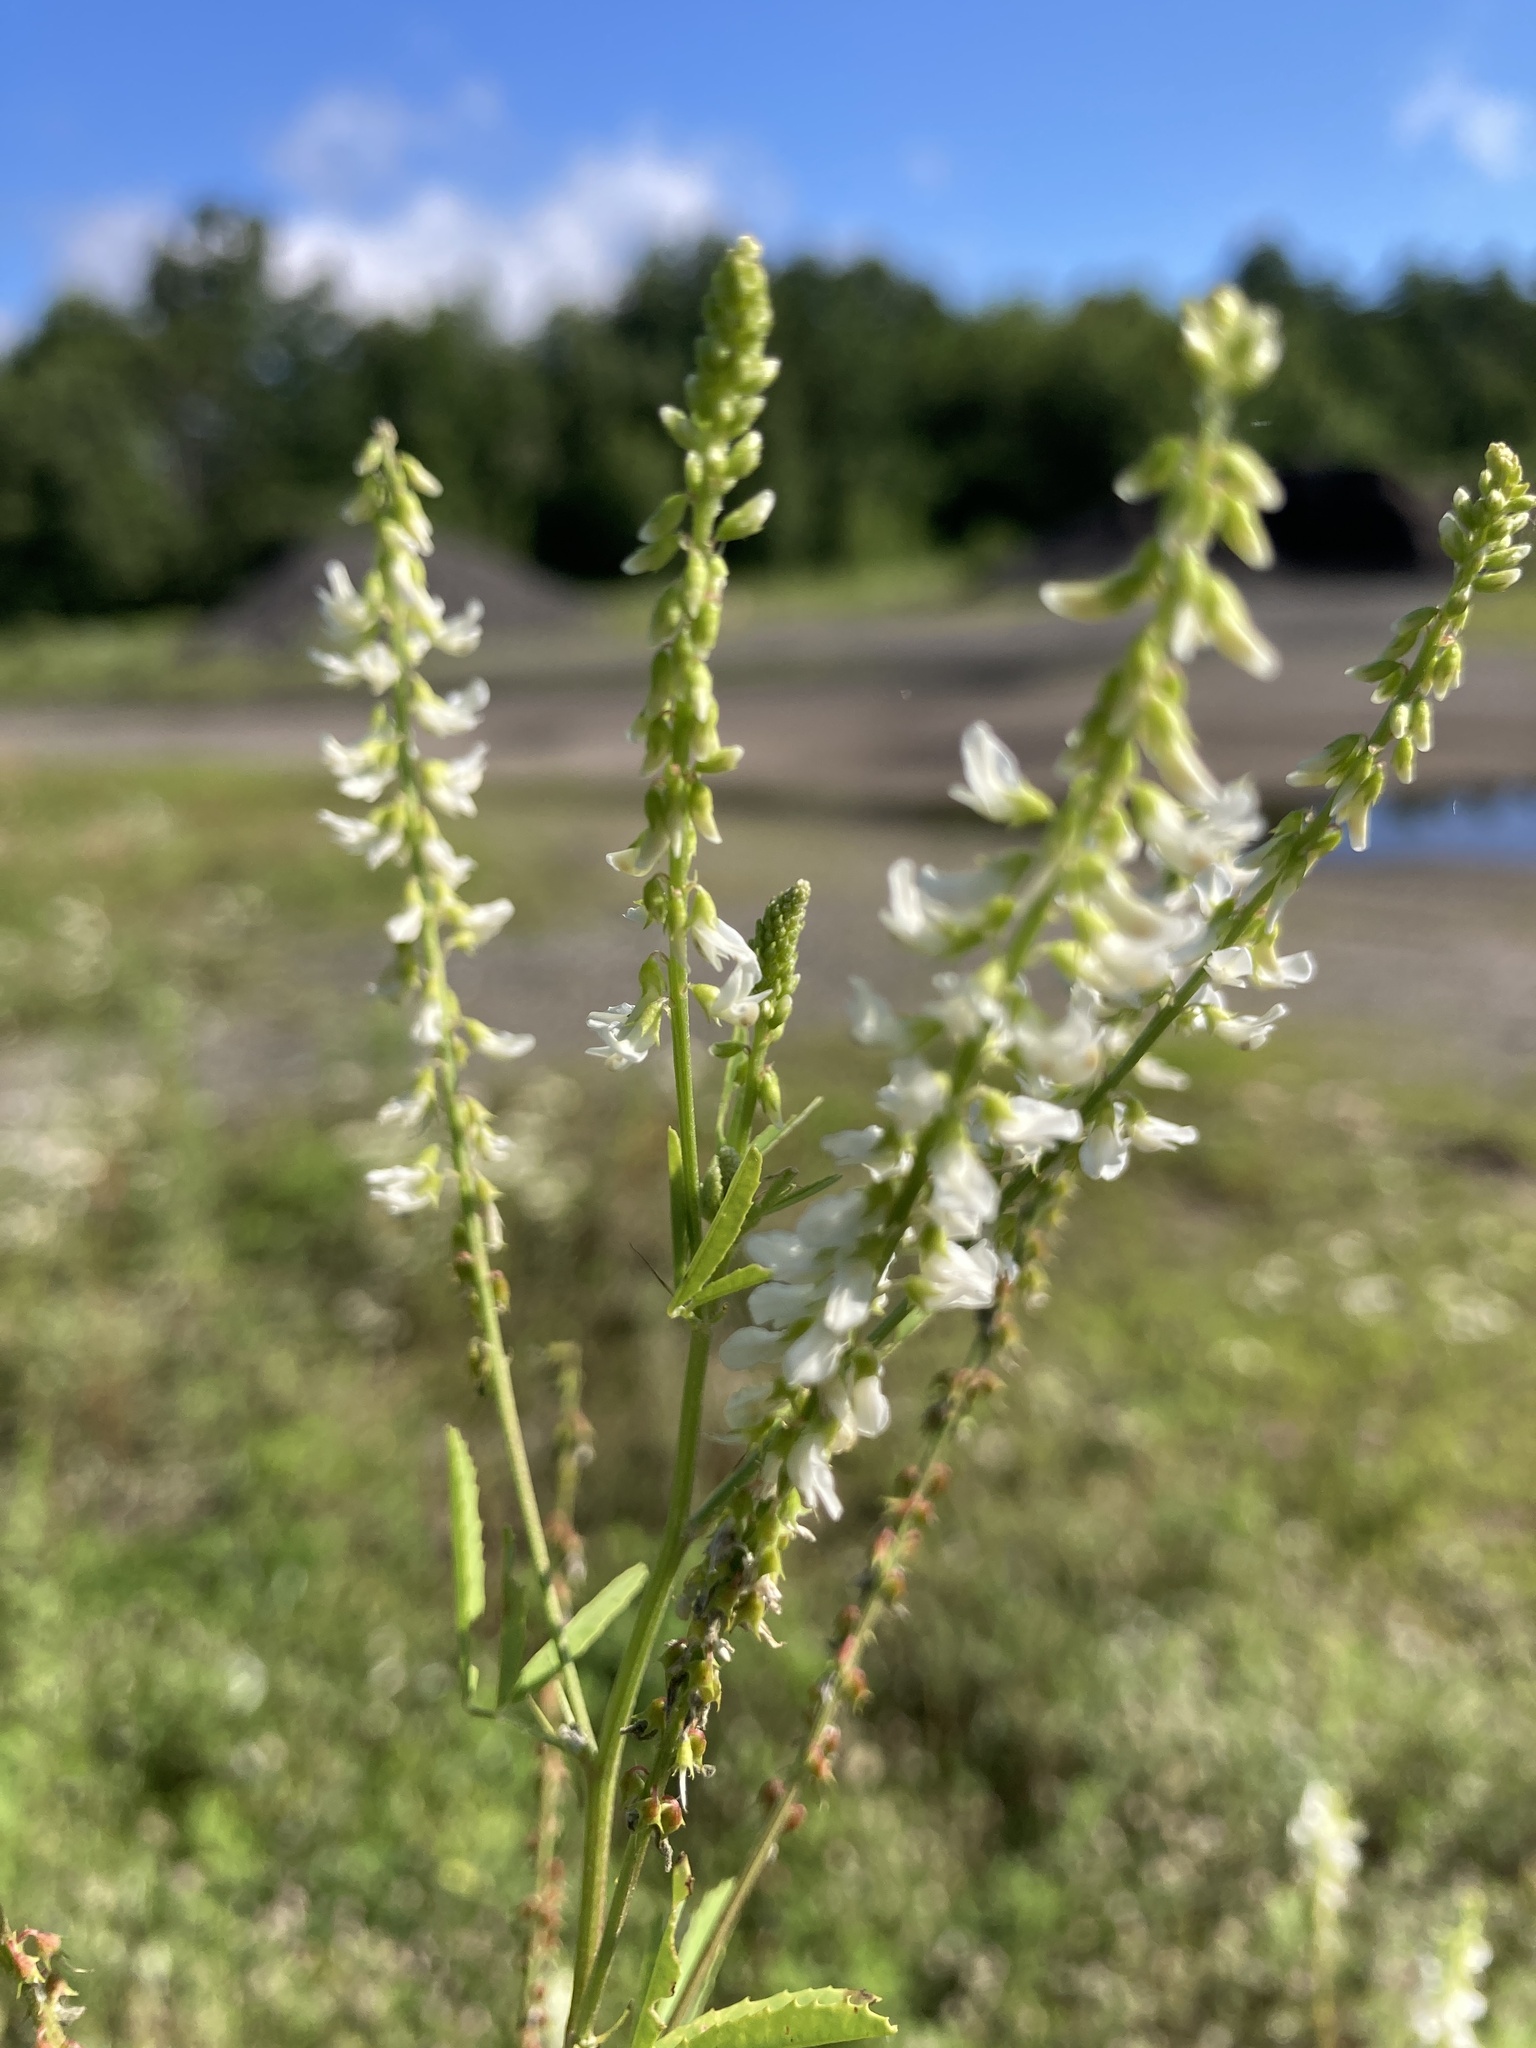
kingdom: Plantae
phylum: Tracheophyta
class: Magnoliopsida
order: Fabales
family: Fabaceae
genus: Melilotus
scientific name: Melilotus albus
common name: White melilot
